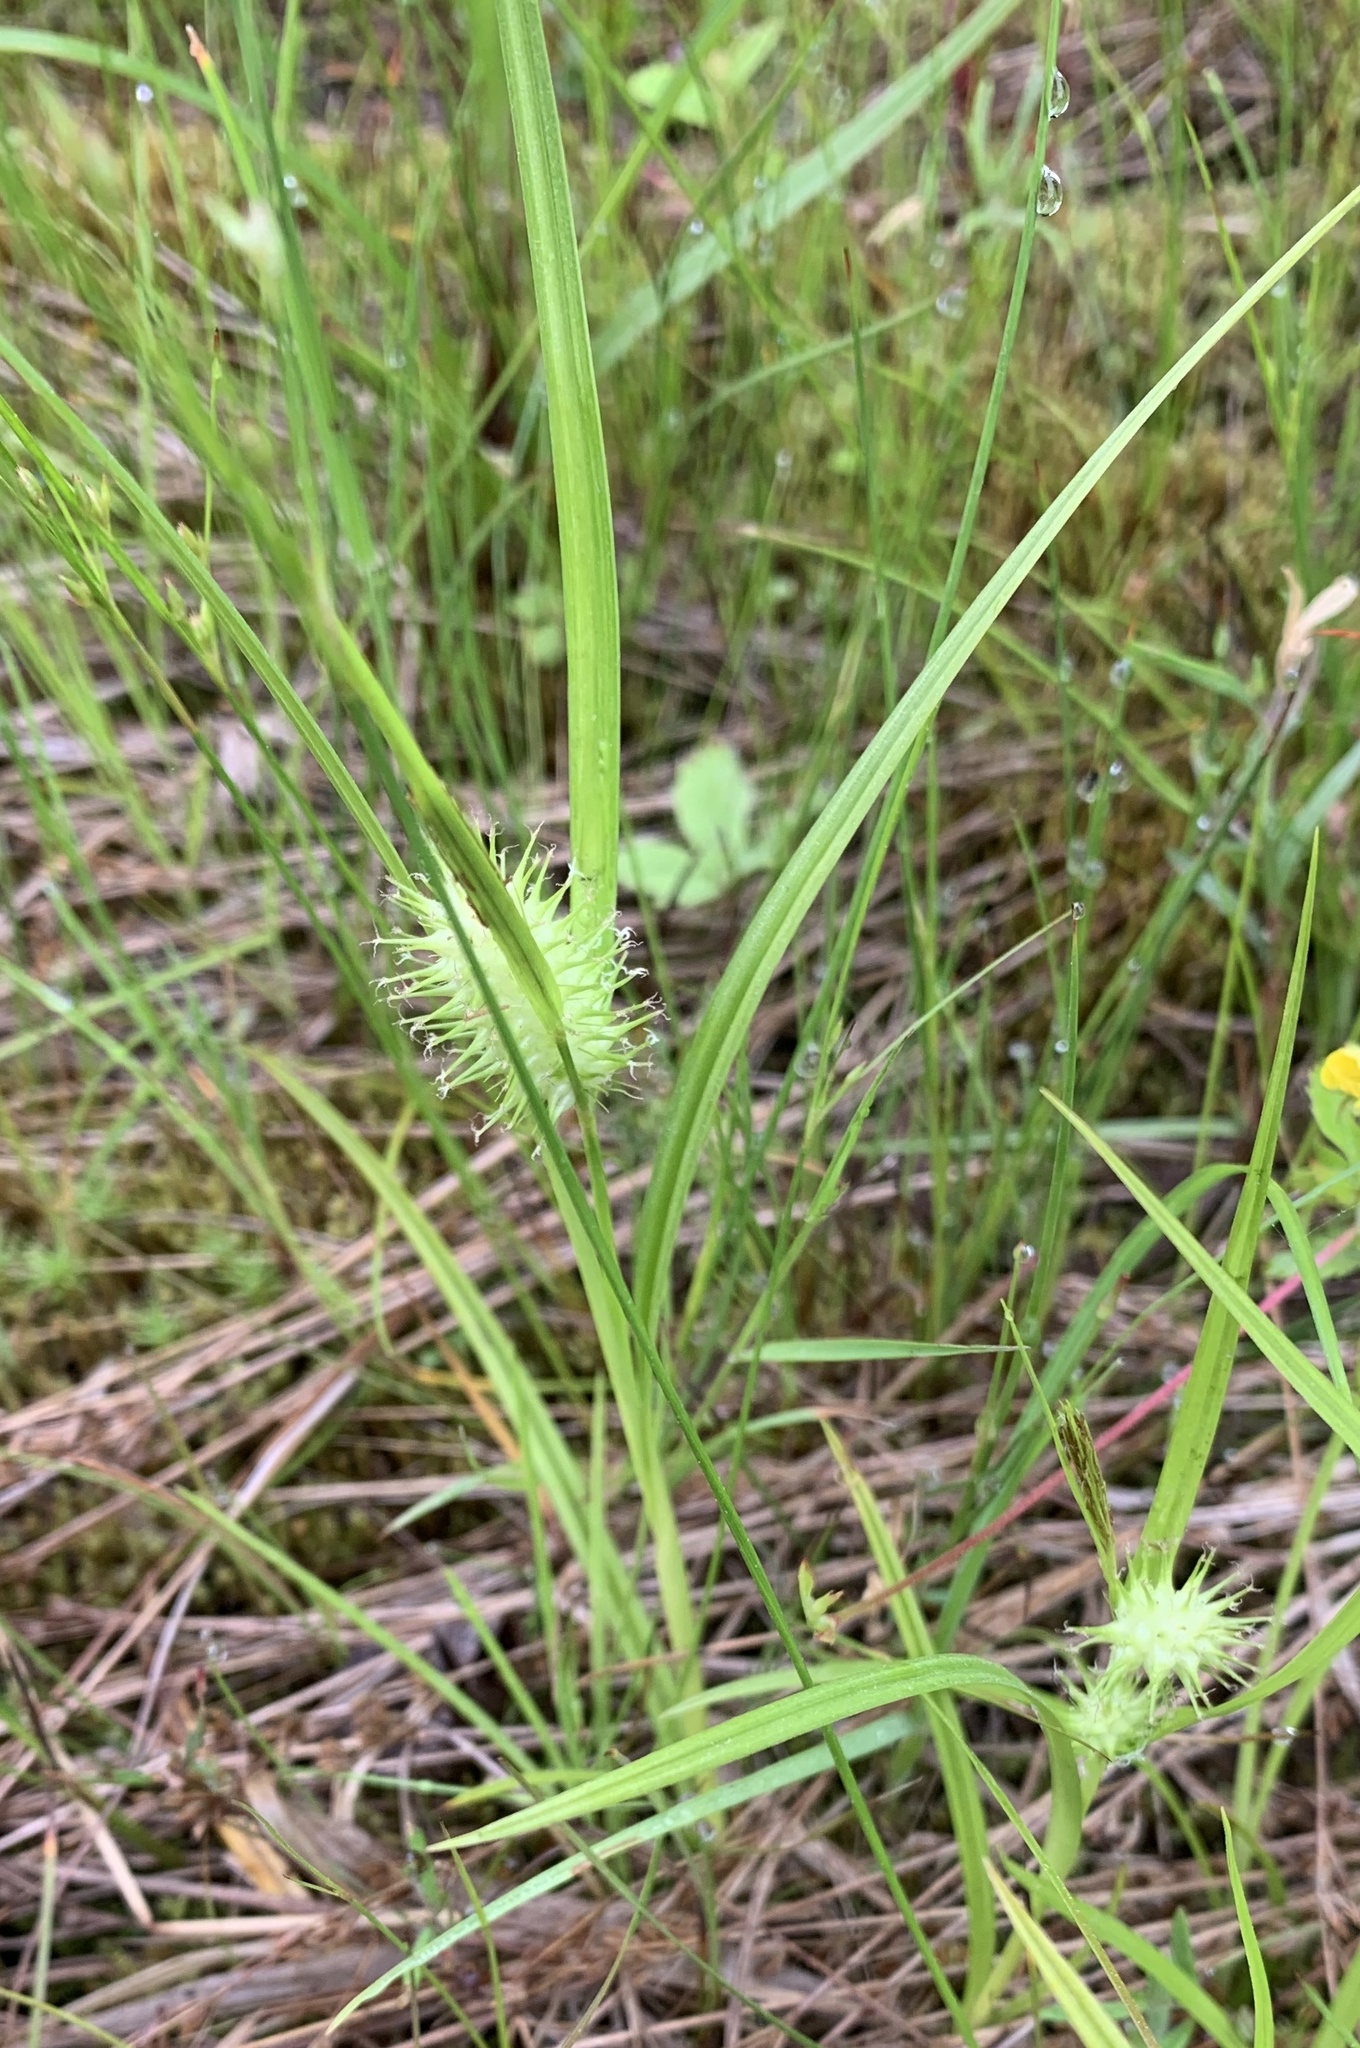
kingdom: Plantae
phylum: Tracheophyta
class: Liliopsida
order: Poales
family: Cyperaceae
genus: Carex
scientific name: Carex lurida
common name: Sallow sedge
